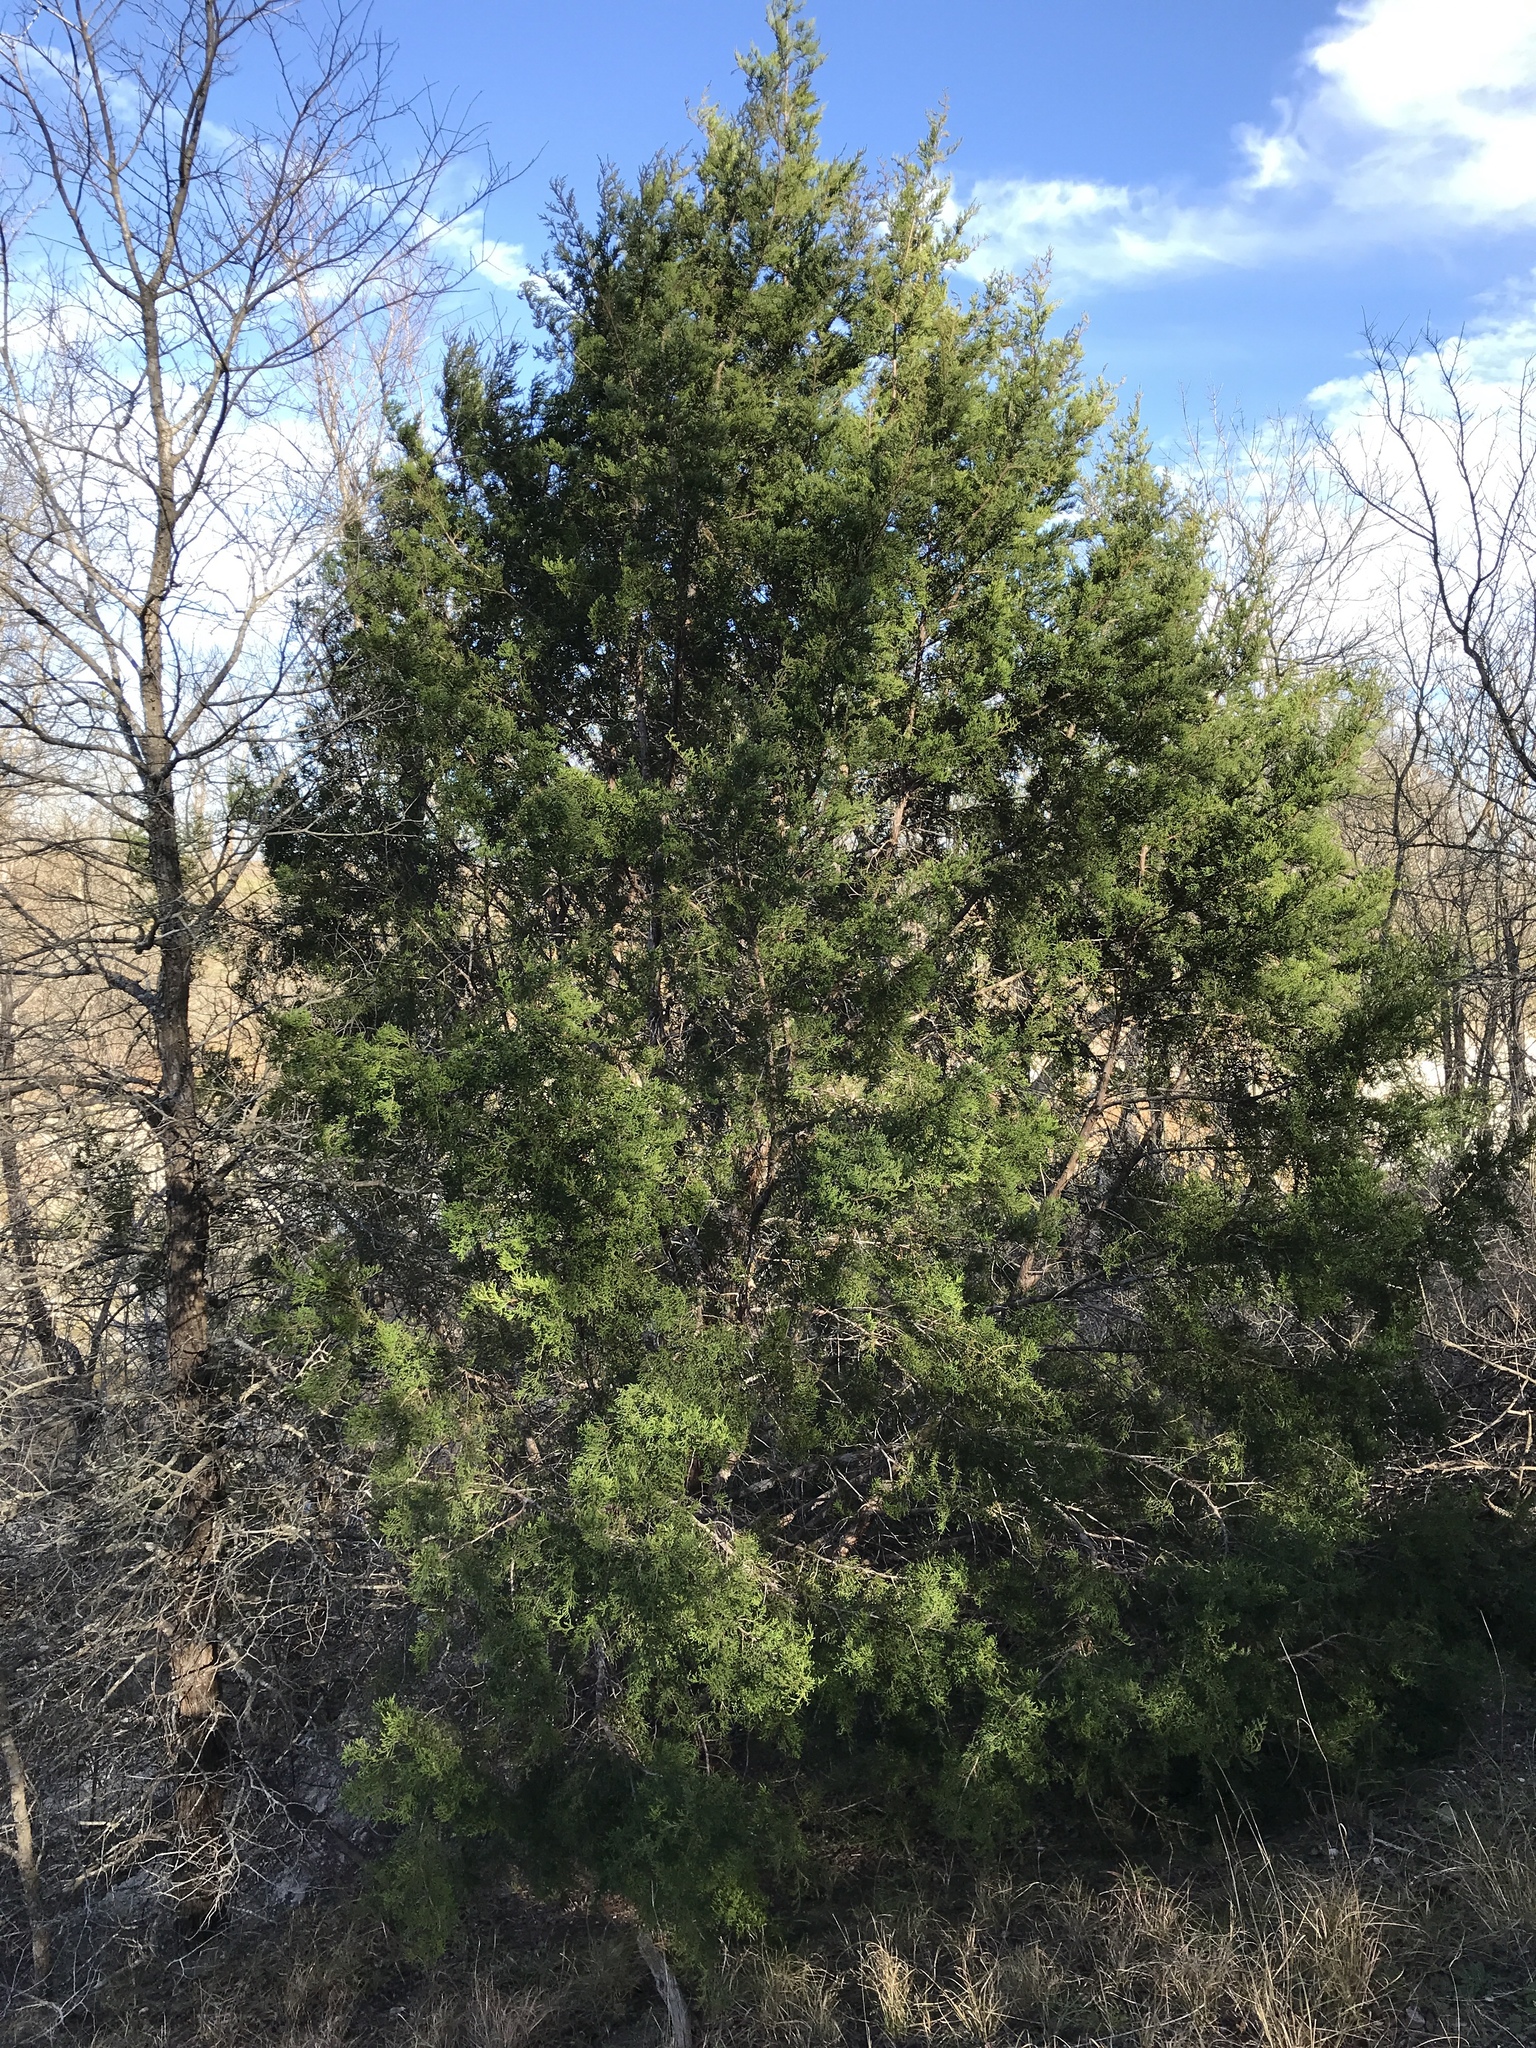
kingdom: Plantae
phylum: Tracheophyta
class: Pinopsida
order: Pinales
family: Cupressaceae
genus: Juniperus
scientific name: Juniperus ashei
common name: Mexican juniper
